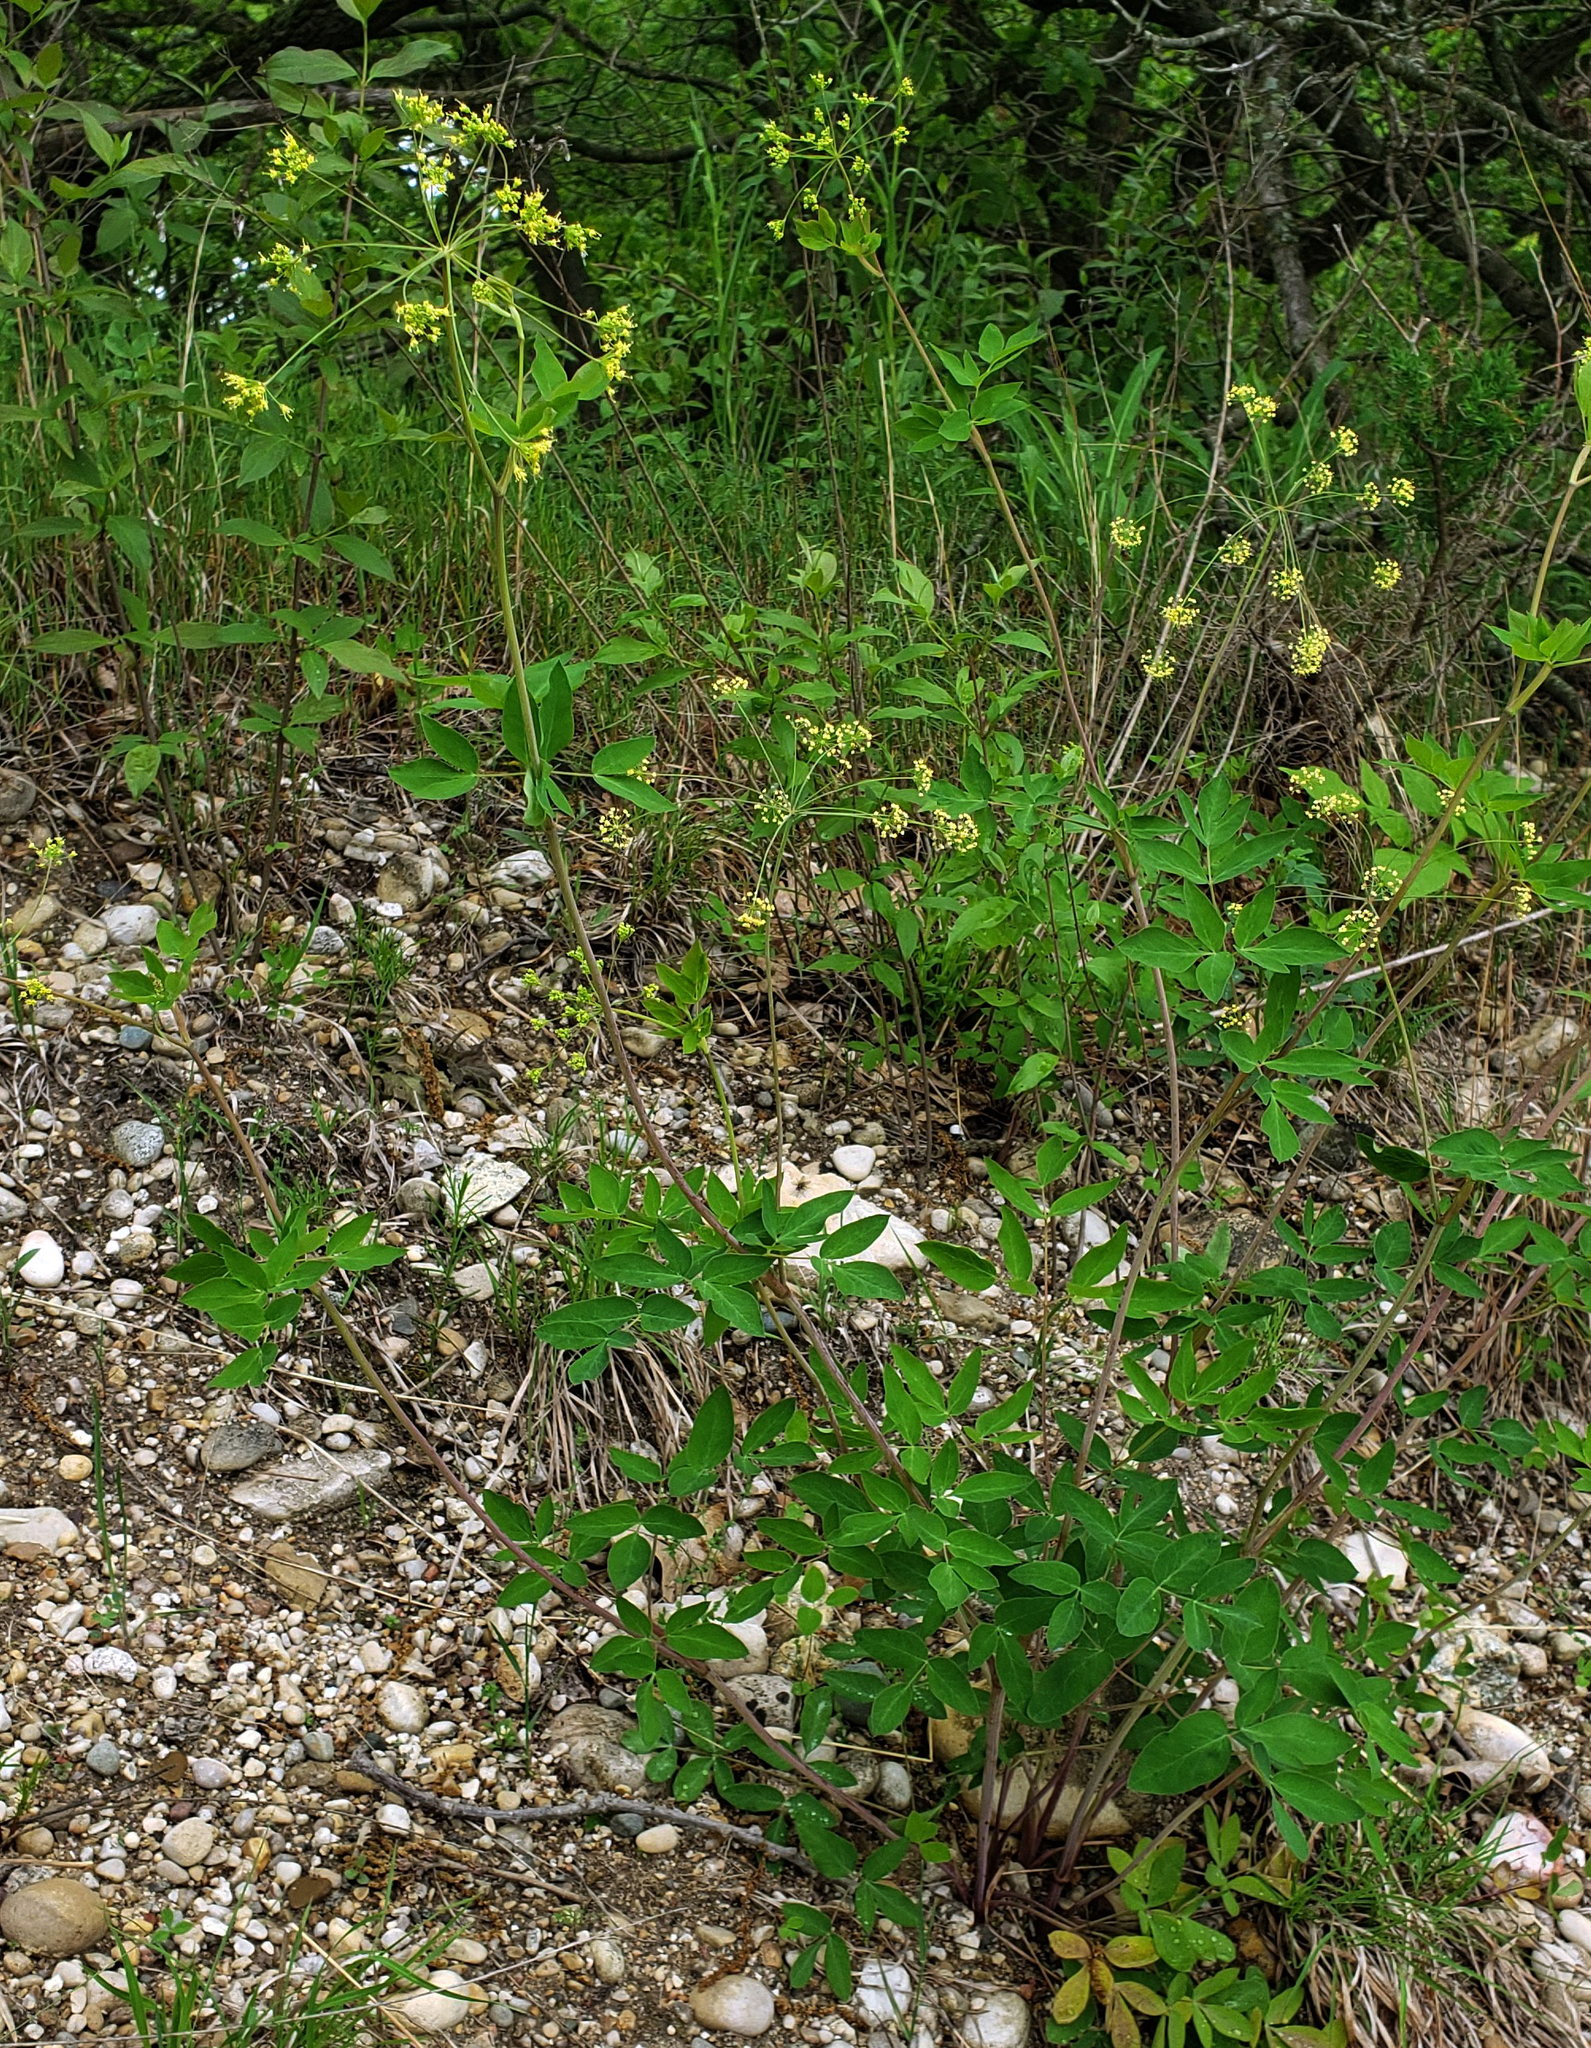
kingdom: Plantae
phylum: Tracheophyta
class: Magnoliopsida
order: Apiales
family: Apiaceae
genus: Taenidia
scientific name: Taenidia integerrima
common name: Golden alexander
